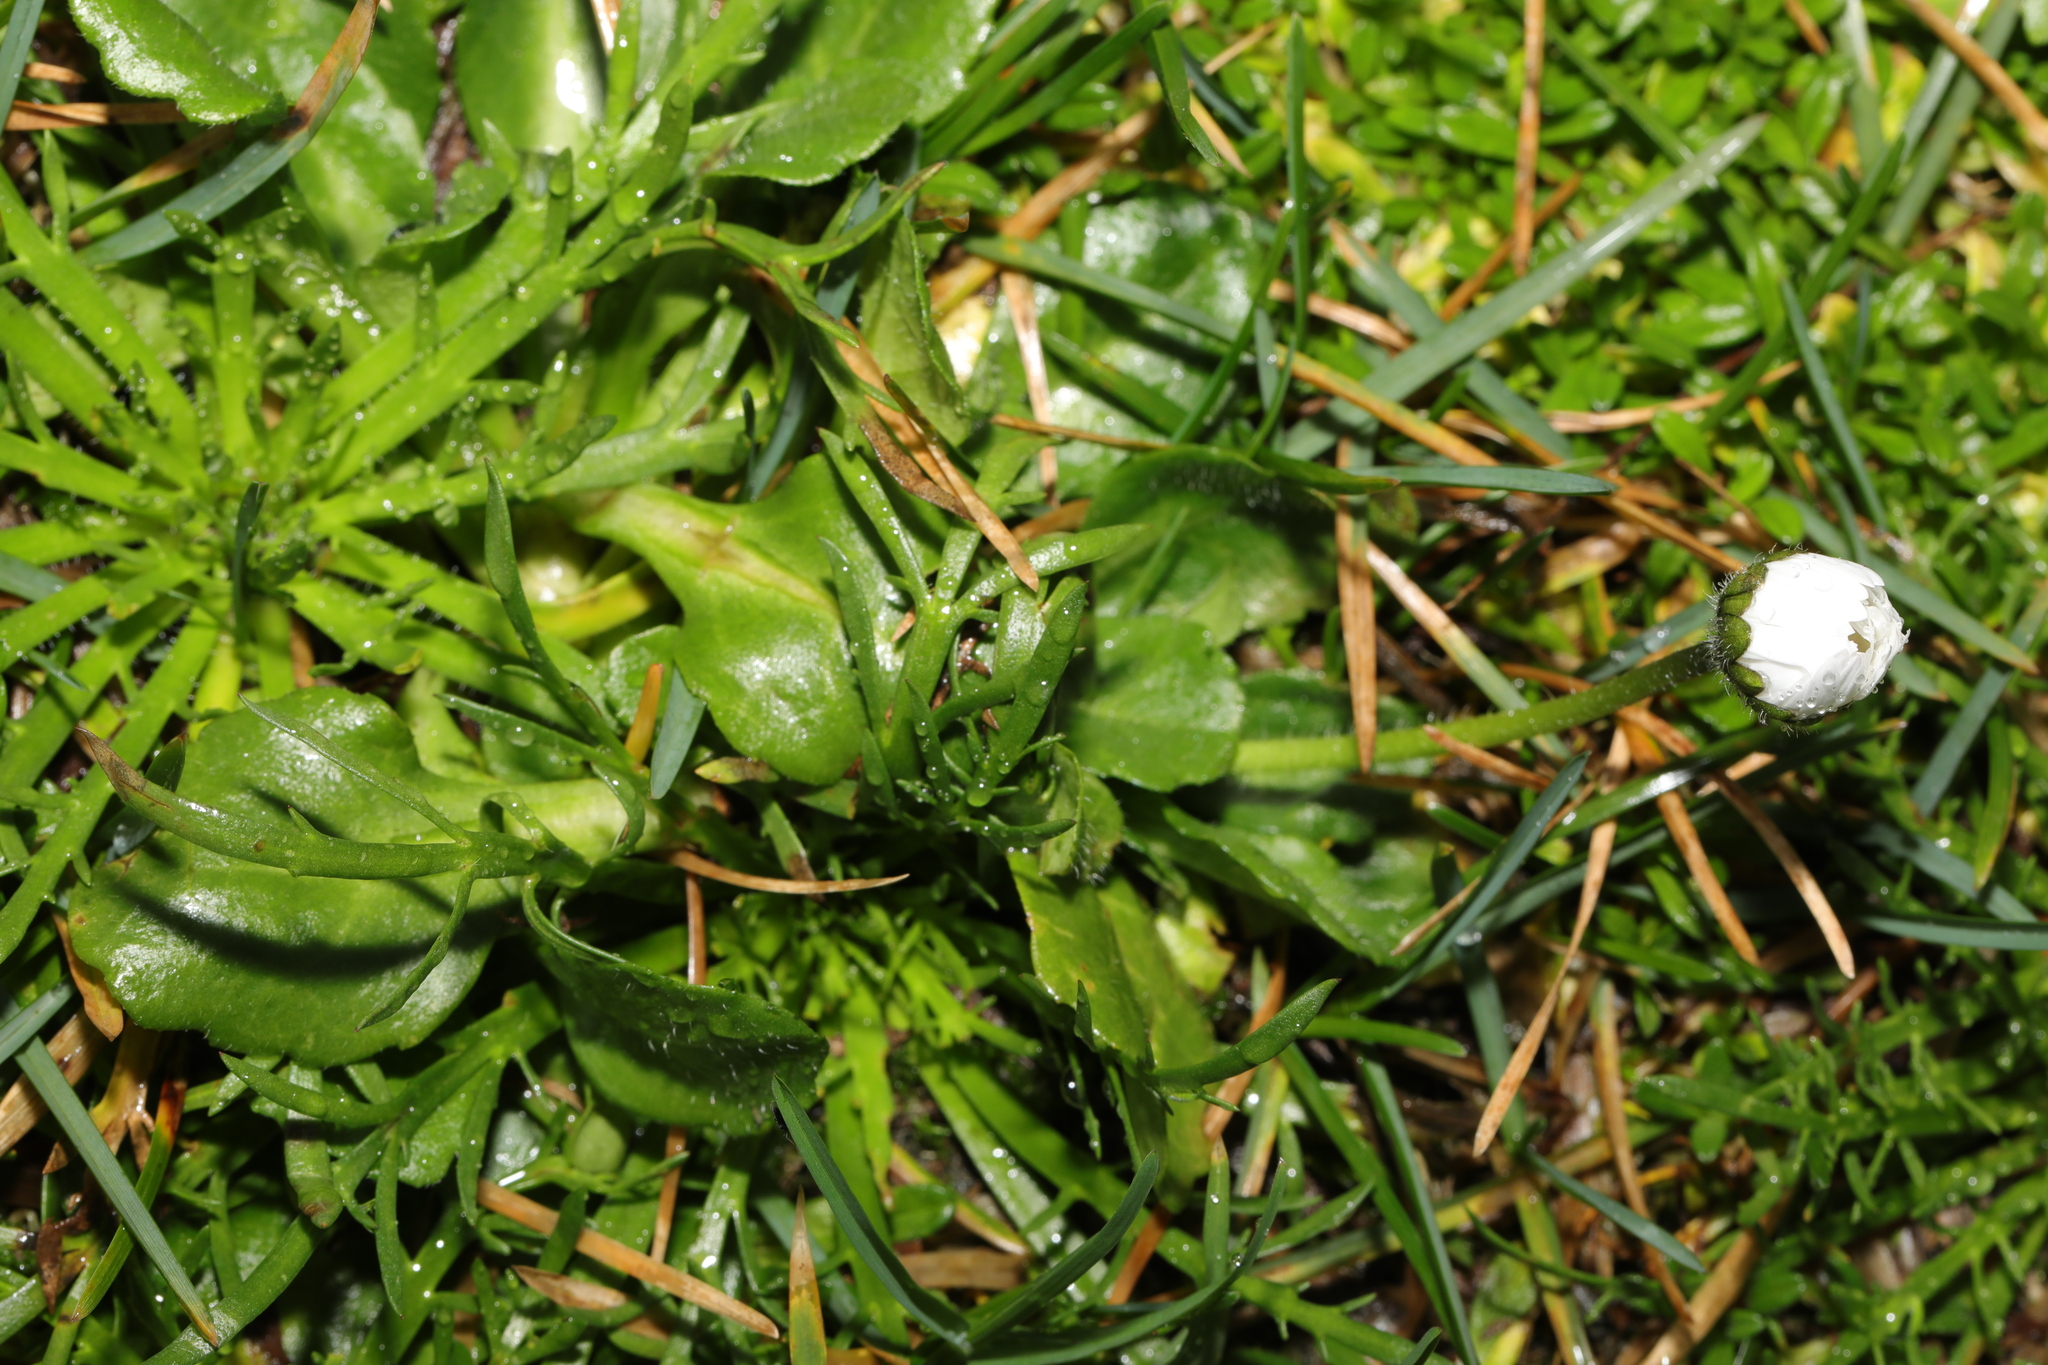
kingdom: Plantae
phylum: Tracheophyta
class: Magnoliopsida
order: Asterales
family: Asteraceae
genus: Bellis
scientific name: Bellis perennis
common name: Lawndaisy
